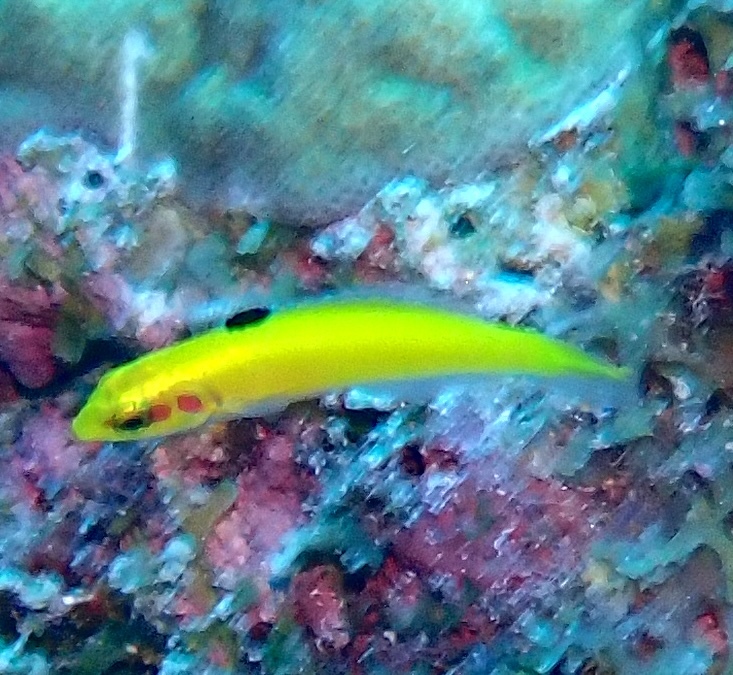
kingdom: Animalia
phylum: Chordata
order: Perciformes
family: Labridae
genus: Thalassoma
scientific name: Thalassoma bifasciatum
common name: Bluehead wrasse
